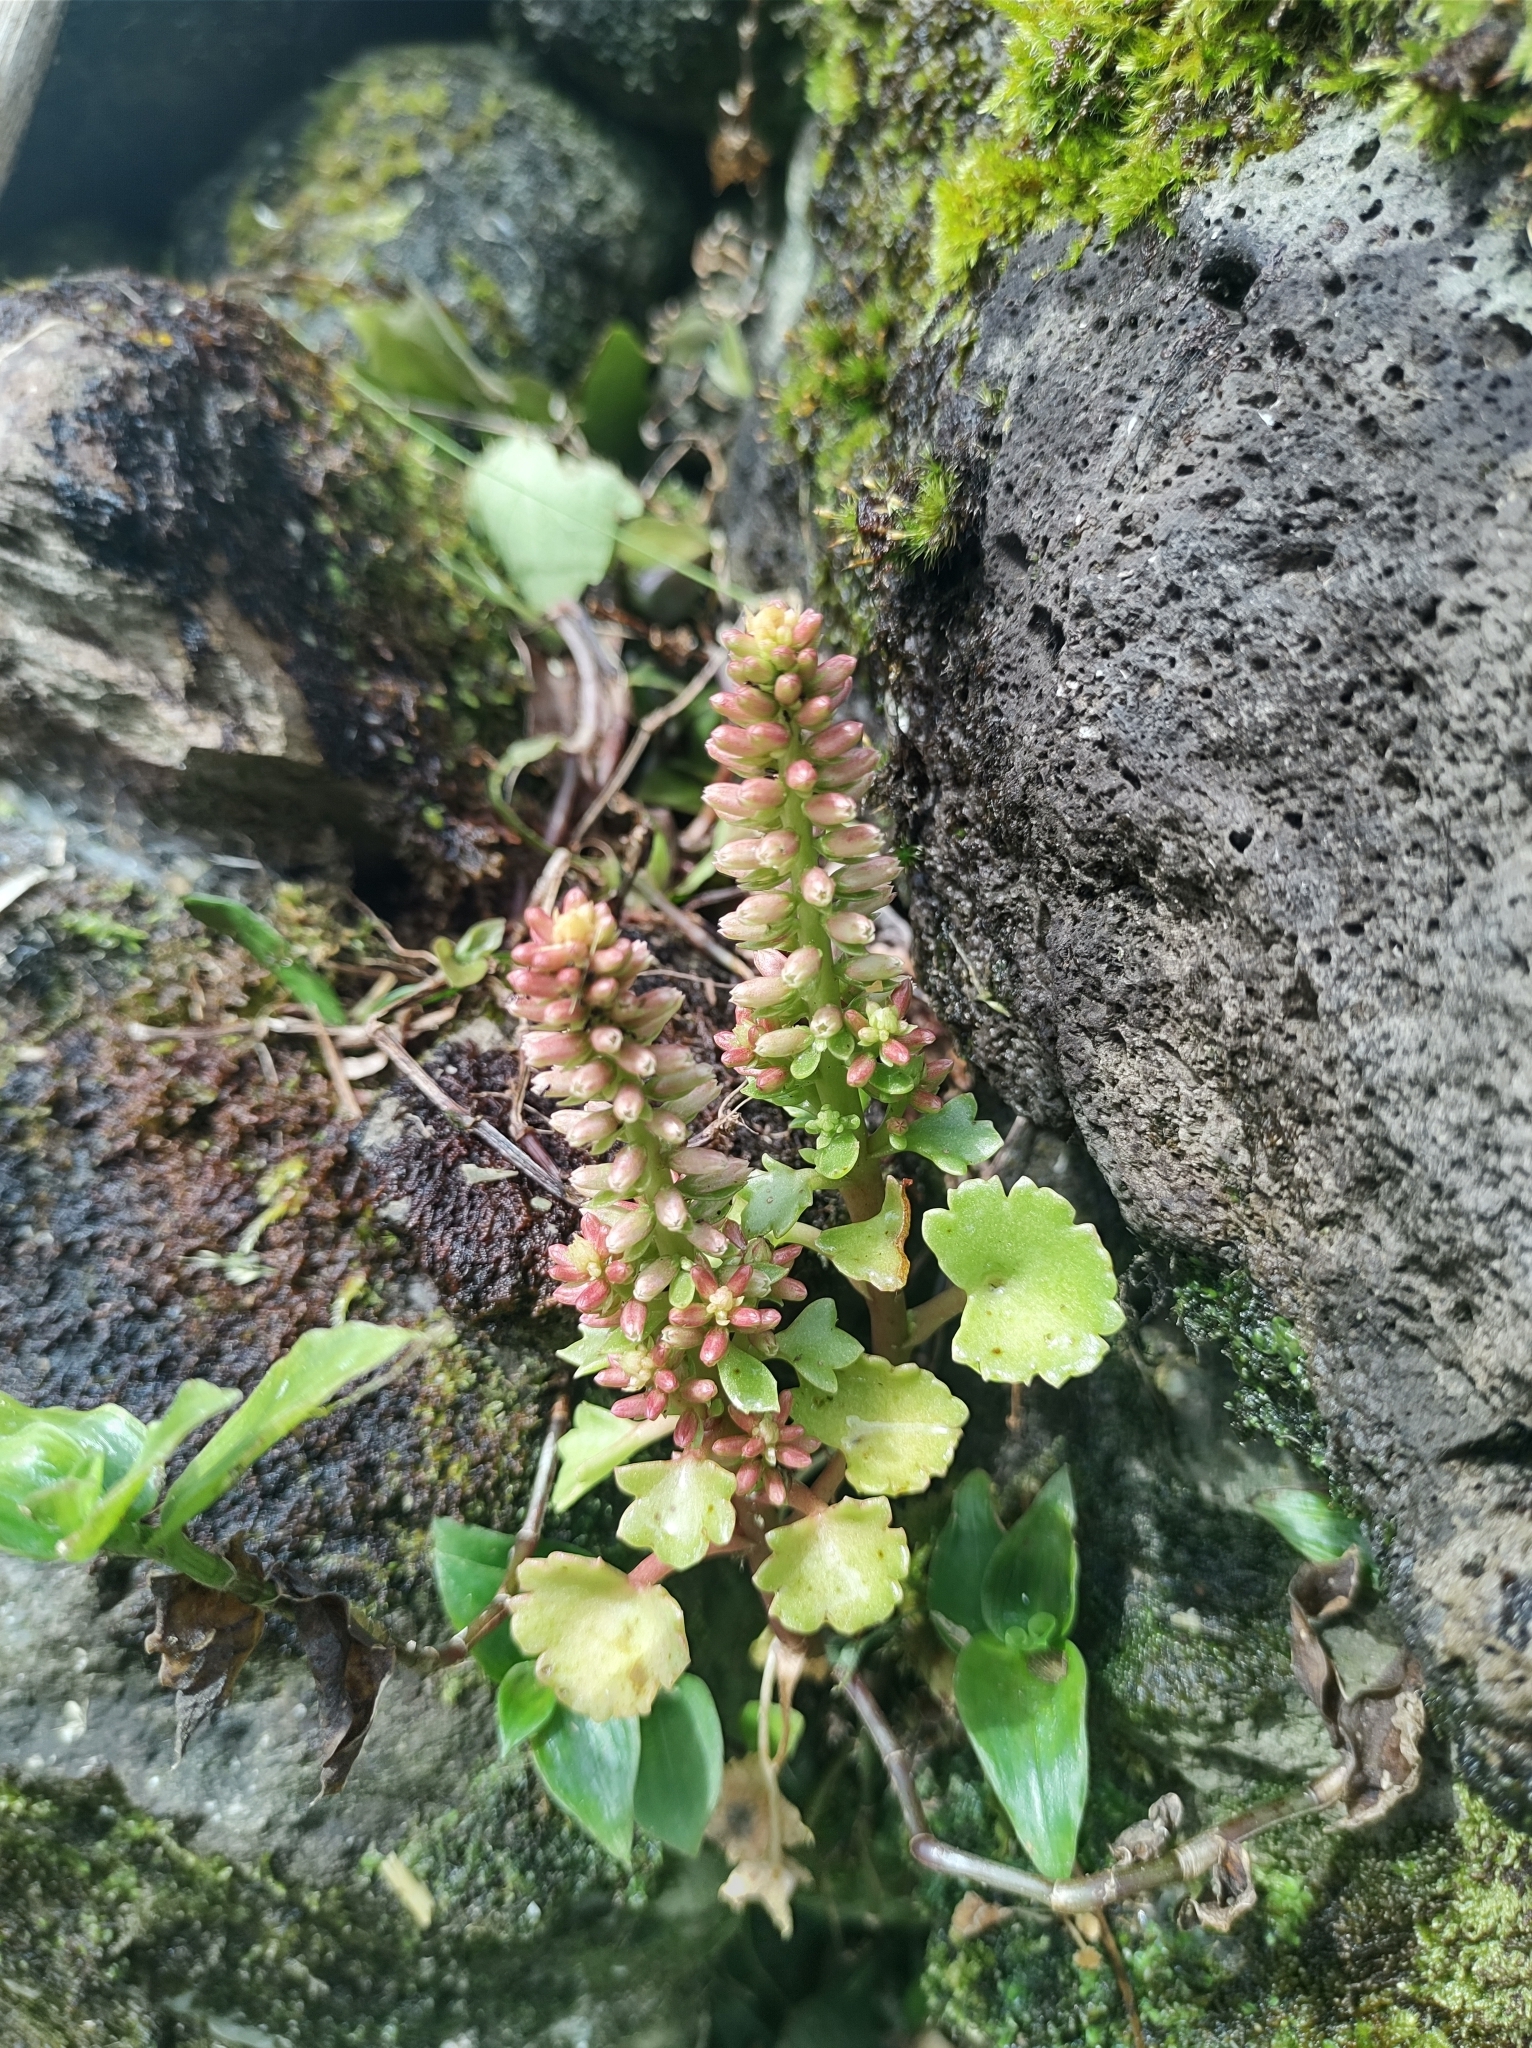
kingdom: Plantae
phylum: Tracheophyta
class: Magnoliopsida
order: Saxifragales
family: Crassulaceae
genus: Umbilicus
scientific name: Umbilicus horizontalis
